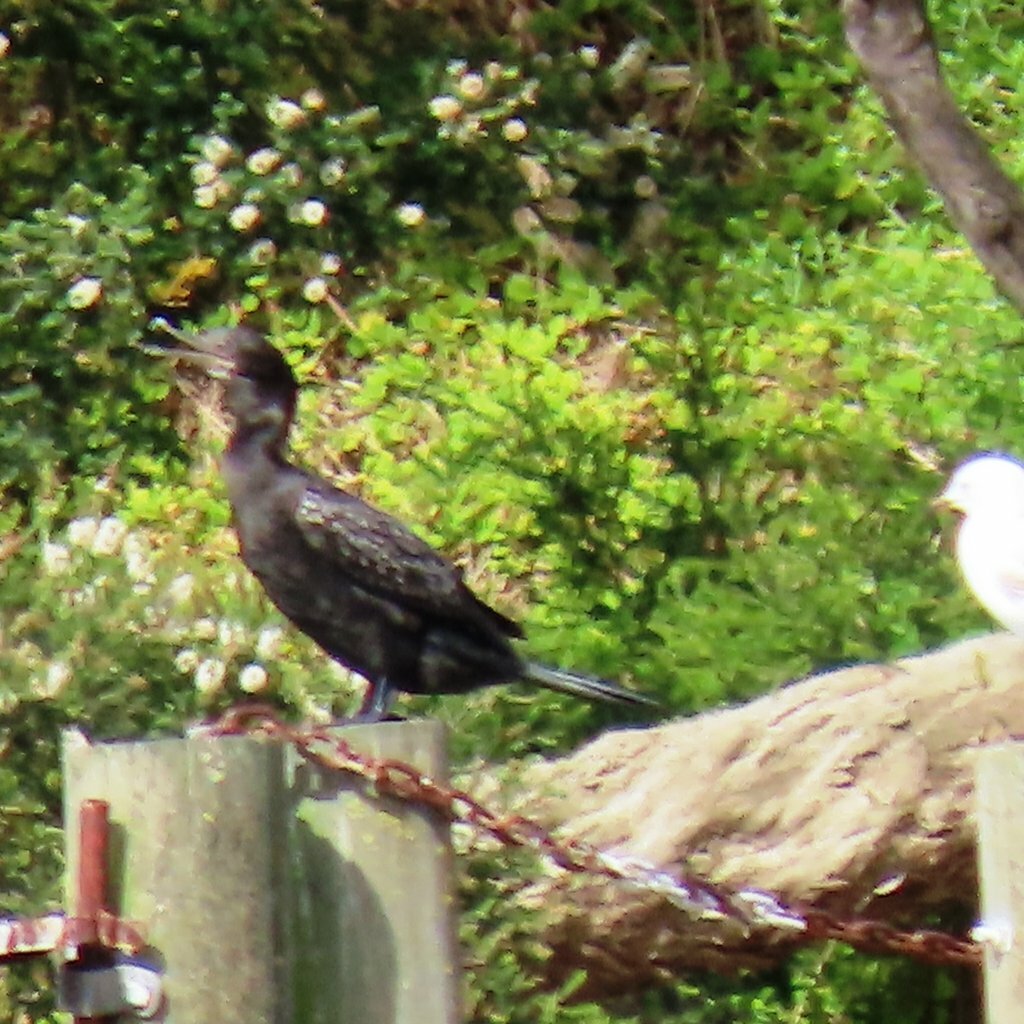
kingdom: Animalia
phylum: Chordata
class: Aves
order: Psittaciformes
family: Psittacidae
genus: Eolophus
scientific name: Eolophus roseicapilla
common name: Galah
